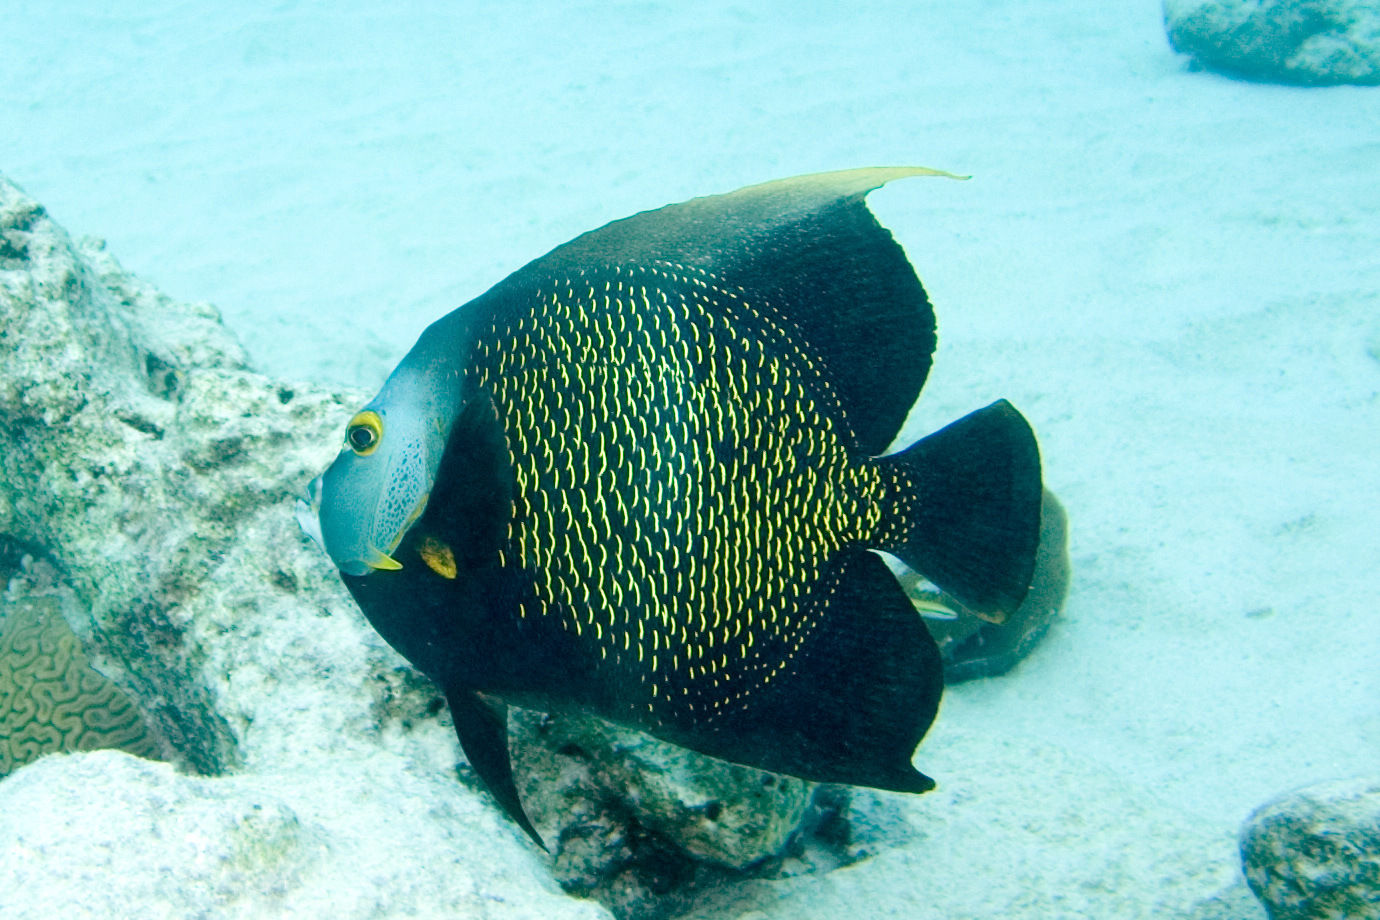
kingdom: Animalia
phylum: Chordata
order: Perciformes
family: Pomacanthidae
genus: Pomacanthus
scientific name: Pomacanthus paru
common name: French angelfish
